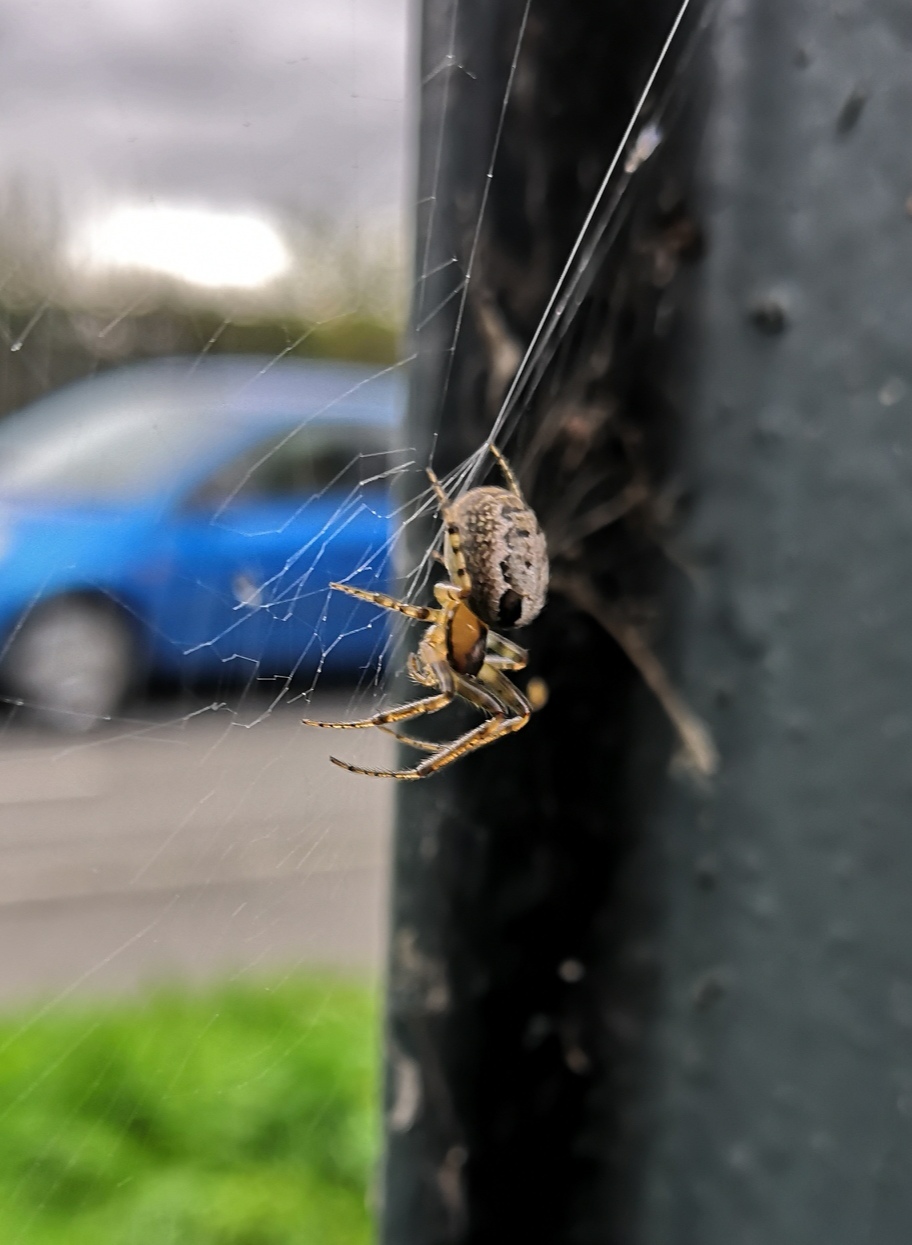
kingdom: Animalia
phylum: Arthropoda
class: Arachnida
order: Araneae
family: Araneidae
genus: Zygiella
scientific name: Zygiella x-notata
